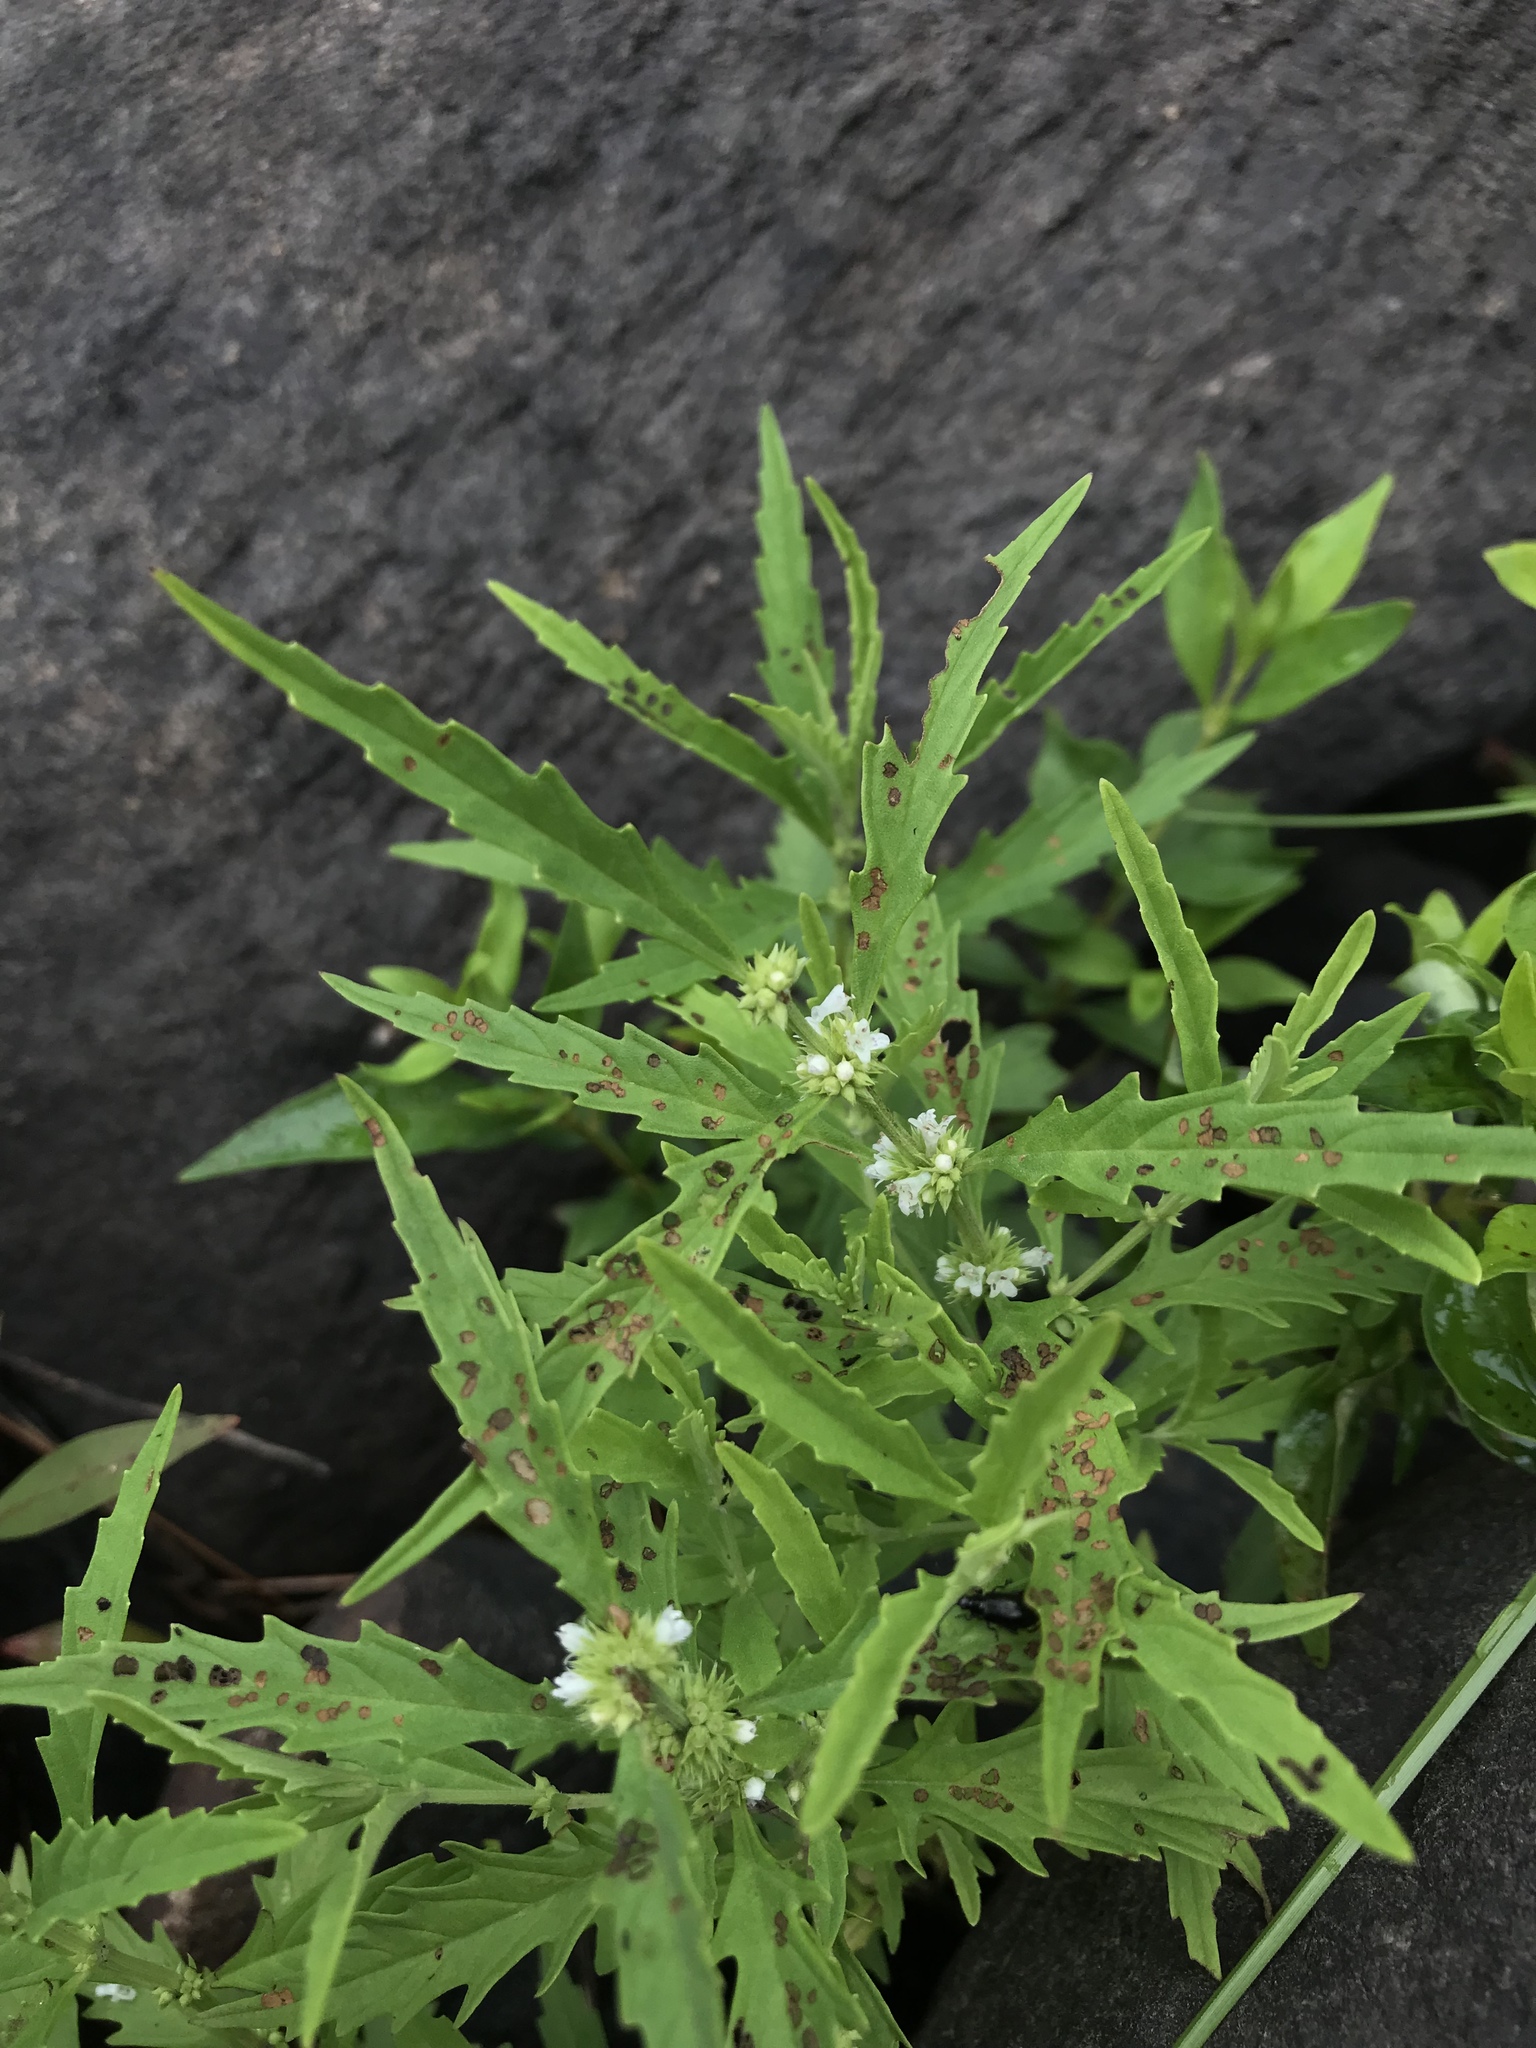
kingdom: Plantae
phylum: Tracheophyta
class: Magnoliopsida
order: Lamiales
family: Lamiaceae
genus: Lycopus
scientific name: Lycopus americanus
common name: American bugleweed
